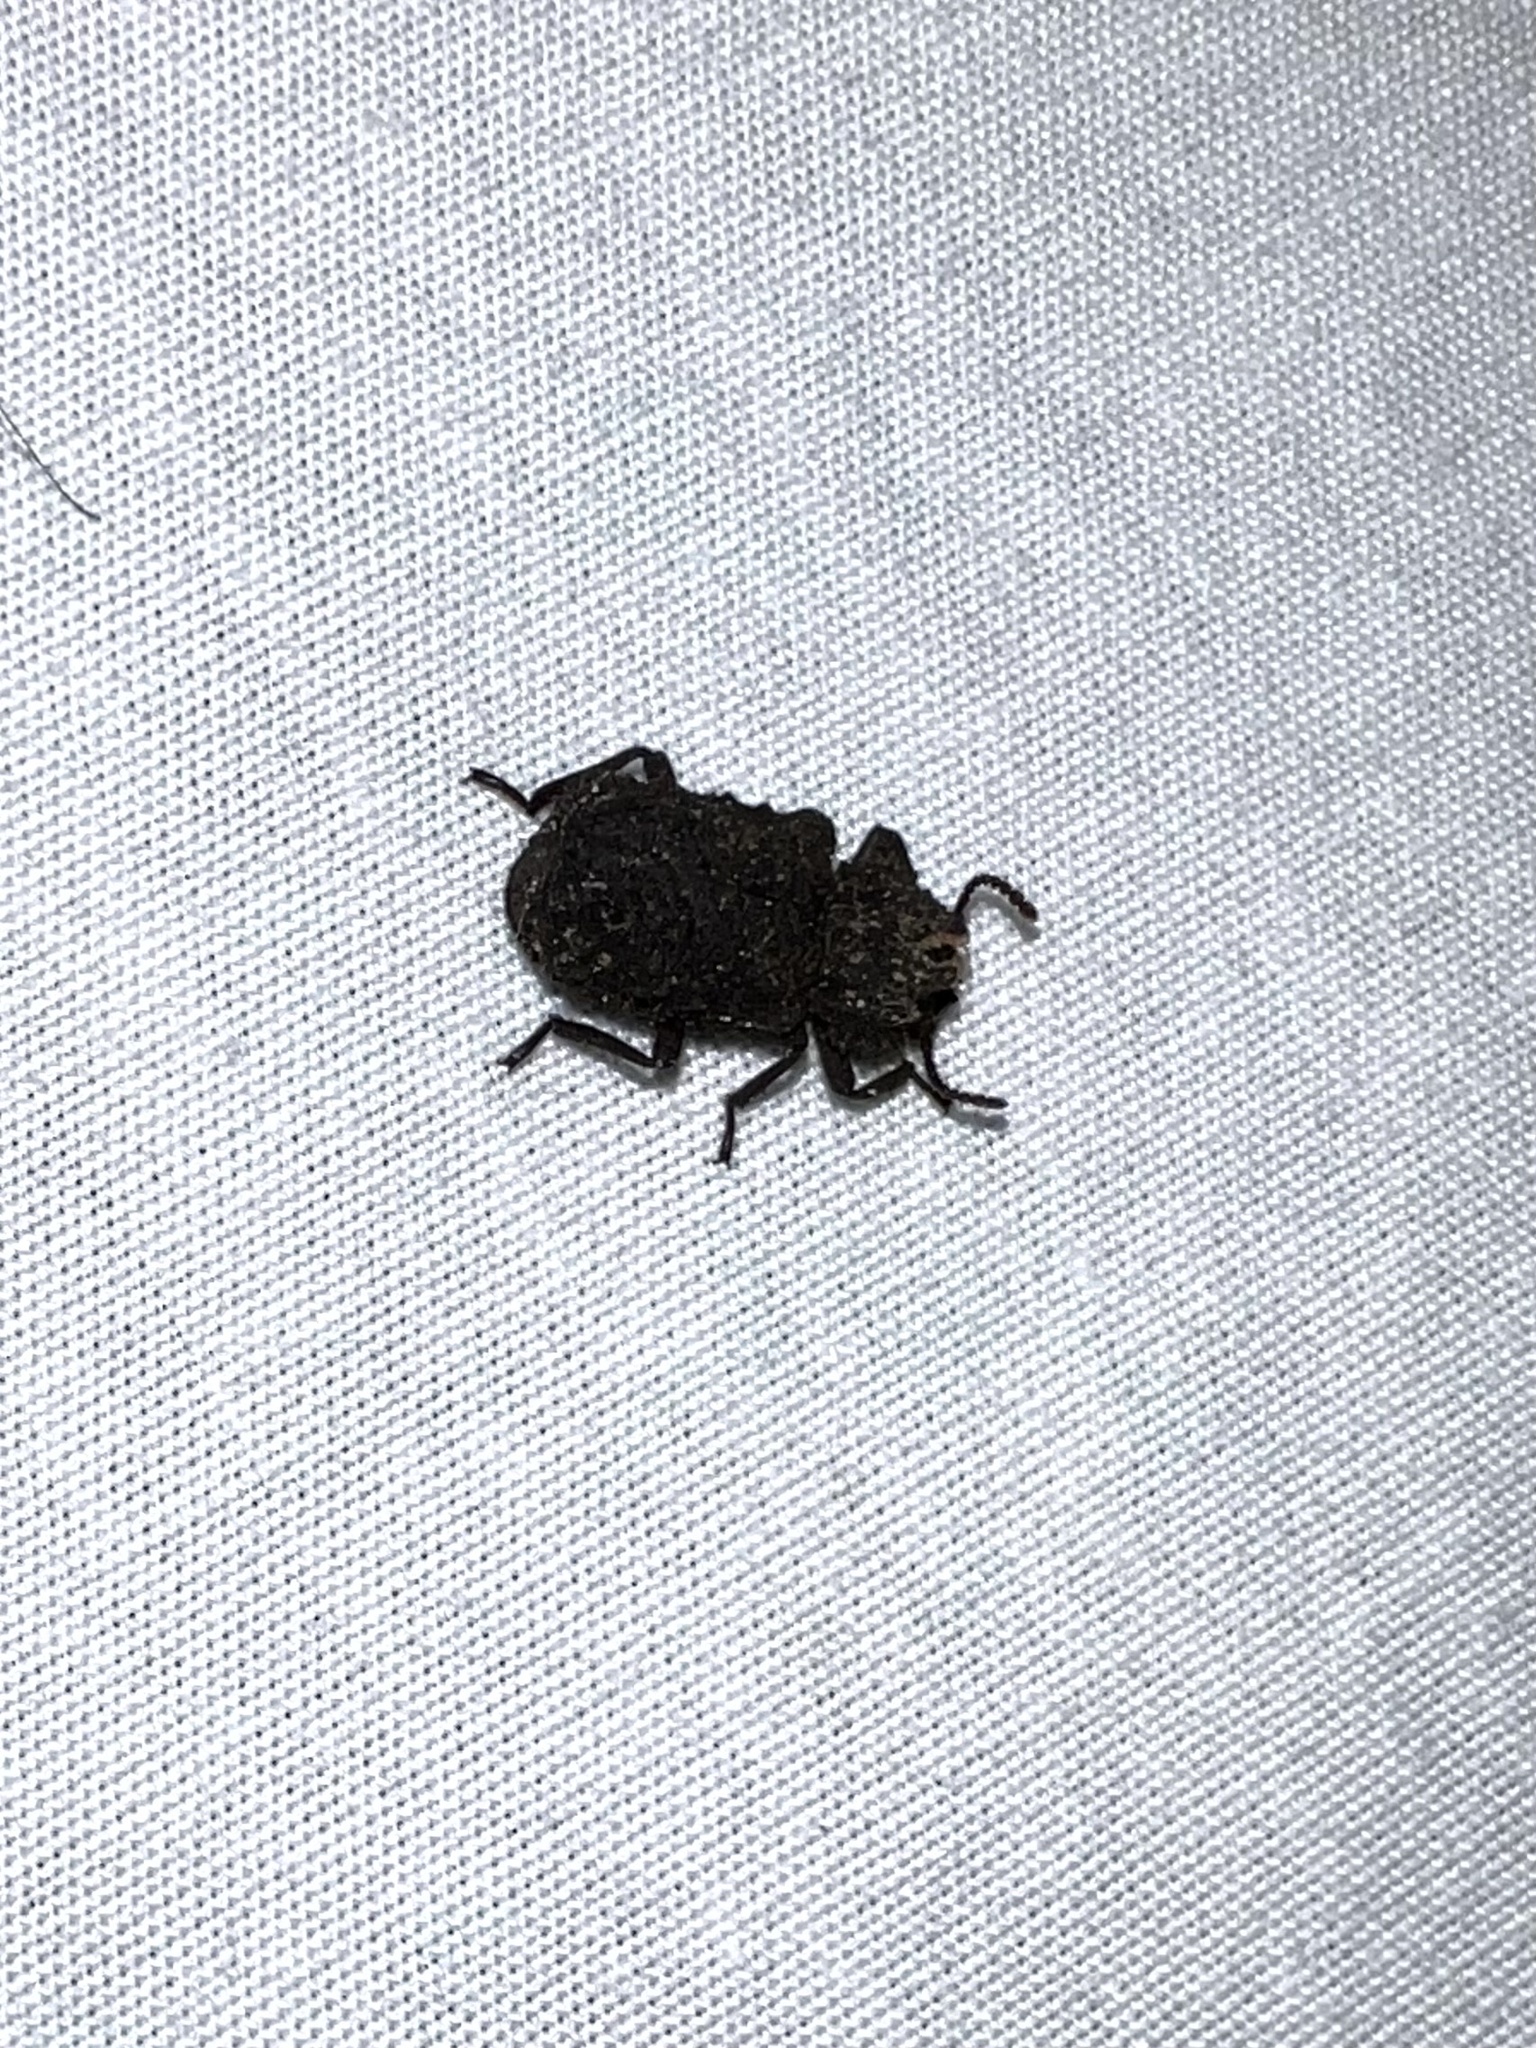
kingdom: Animalia
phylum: Arthropoda
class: Insecta
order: Coleoptera
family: Tenebrionidae
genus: Gnatocerus
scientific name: Gnatocerus cornutus
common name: Broad-horned flour beetle
